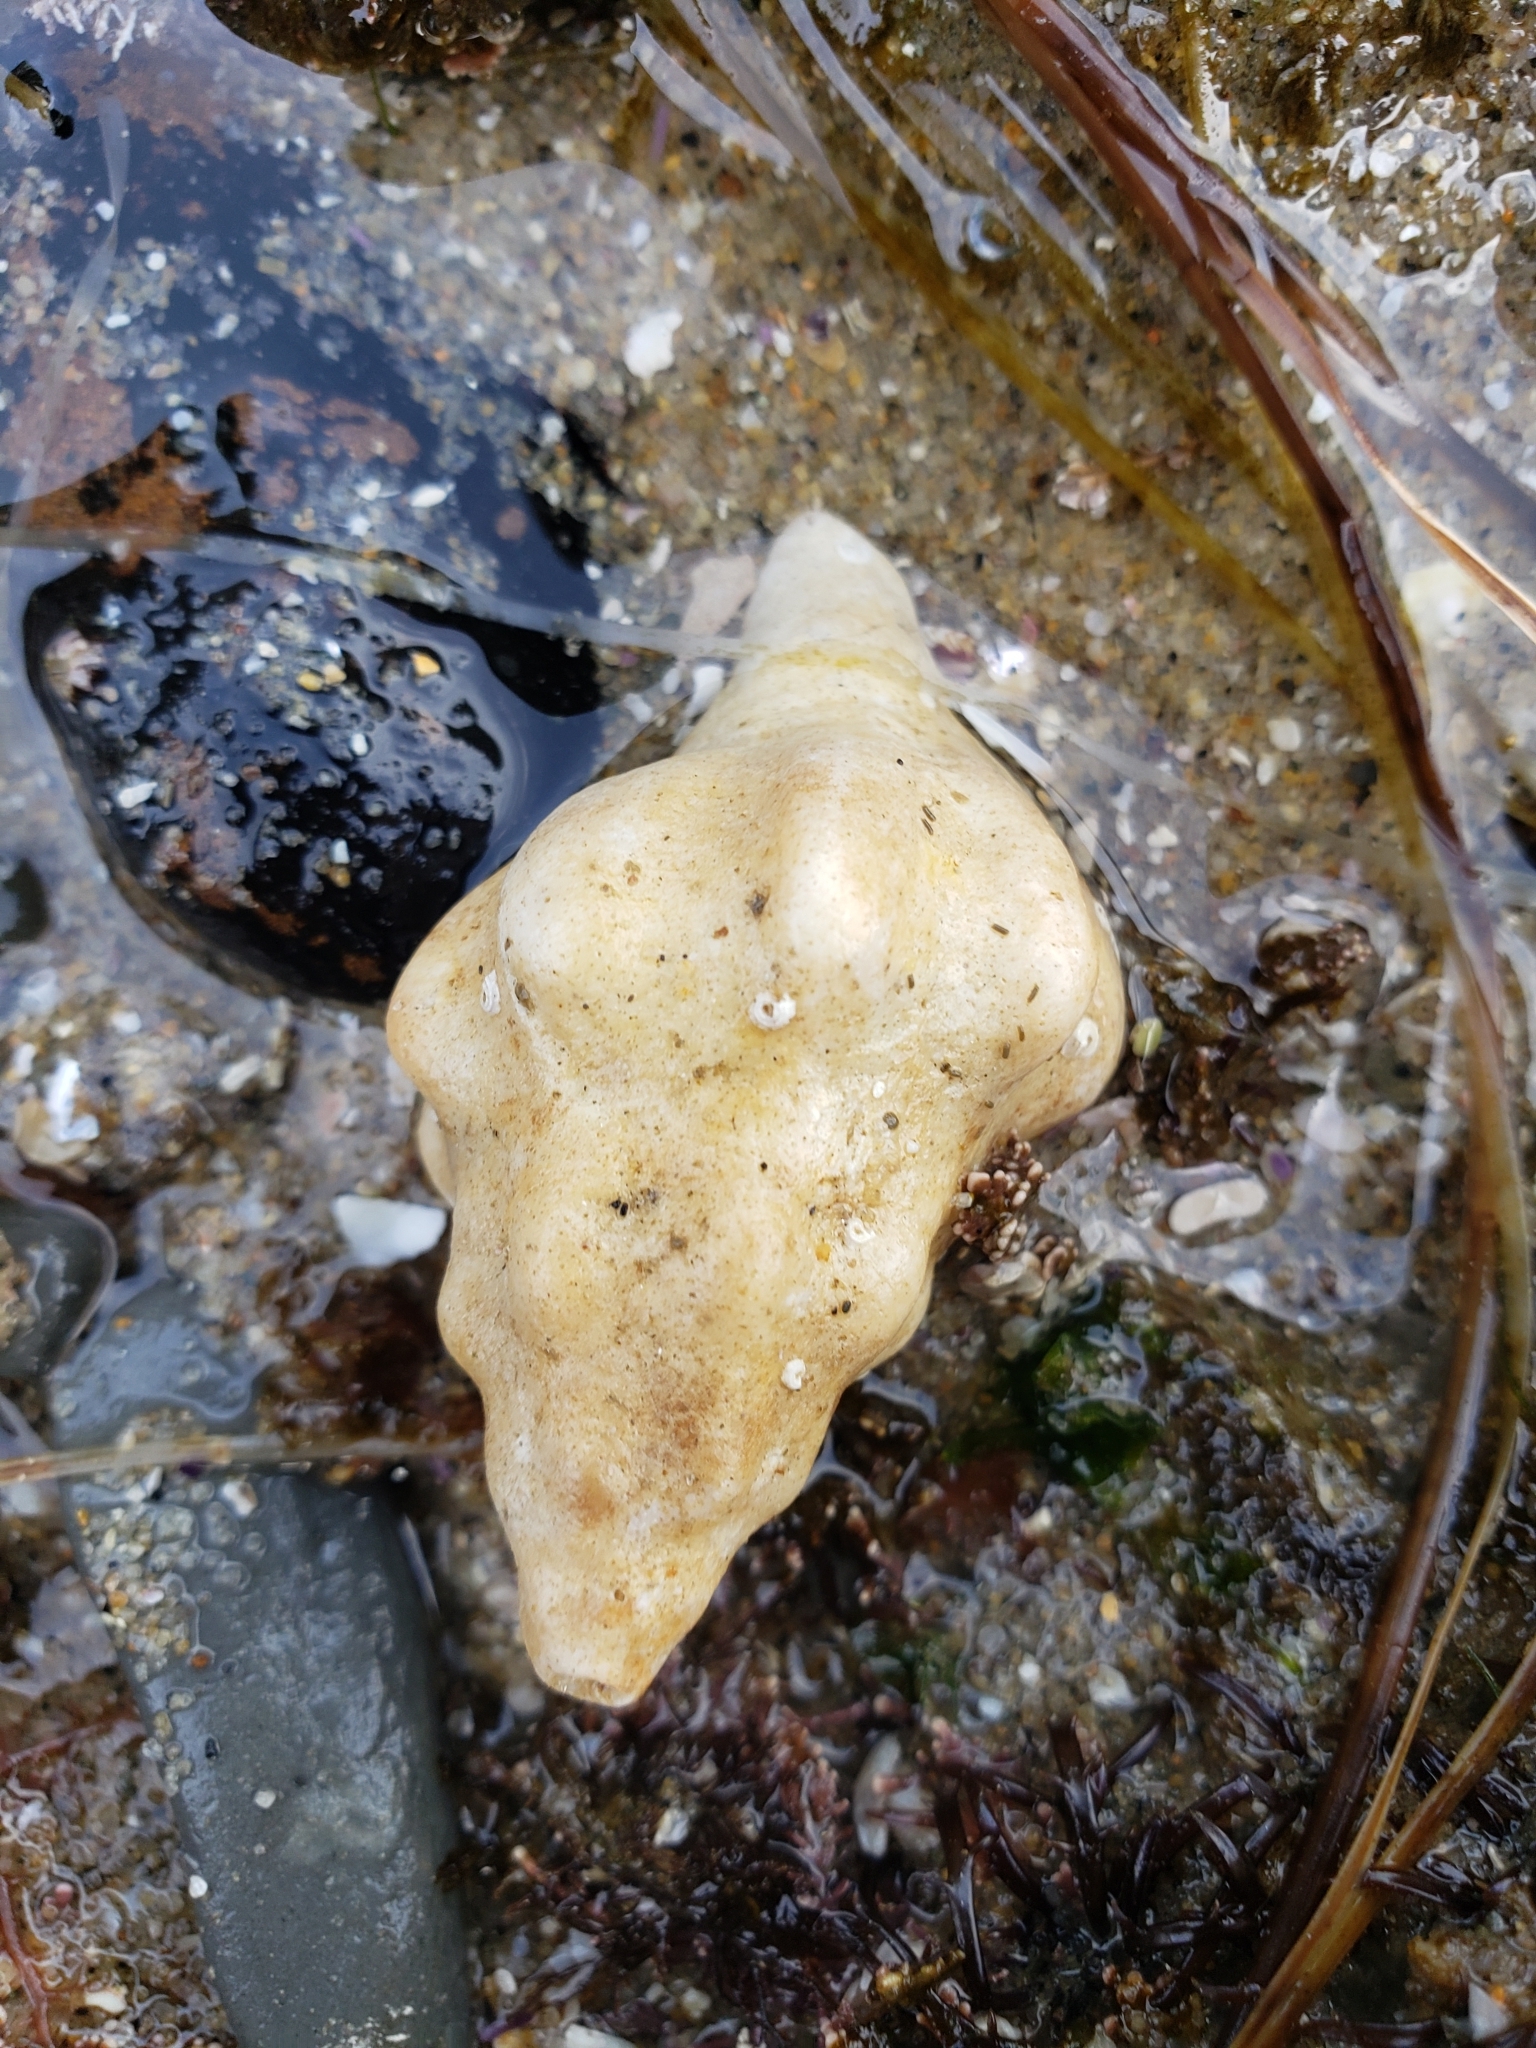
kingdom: Animalia
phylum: Mollusca
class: Gastropoda
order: Neogastropoda
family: Austrosiphonidae
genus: Kelletia
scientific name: Kelletia kelletii
